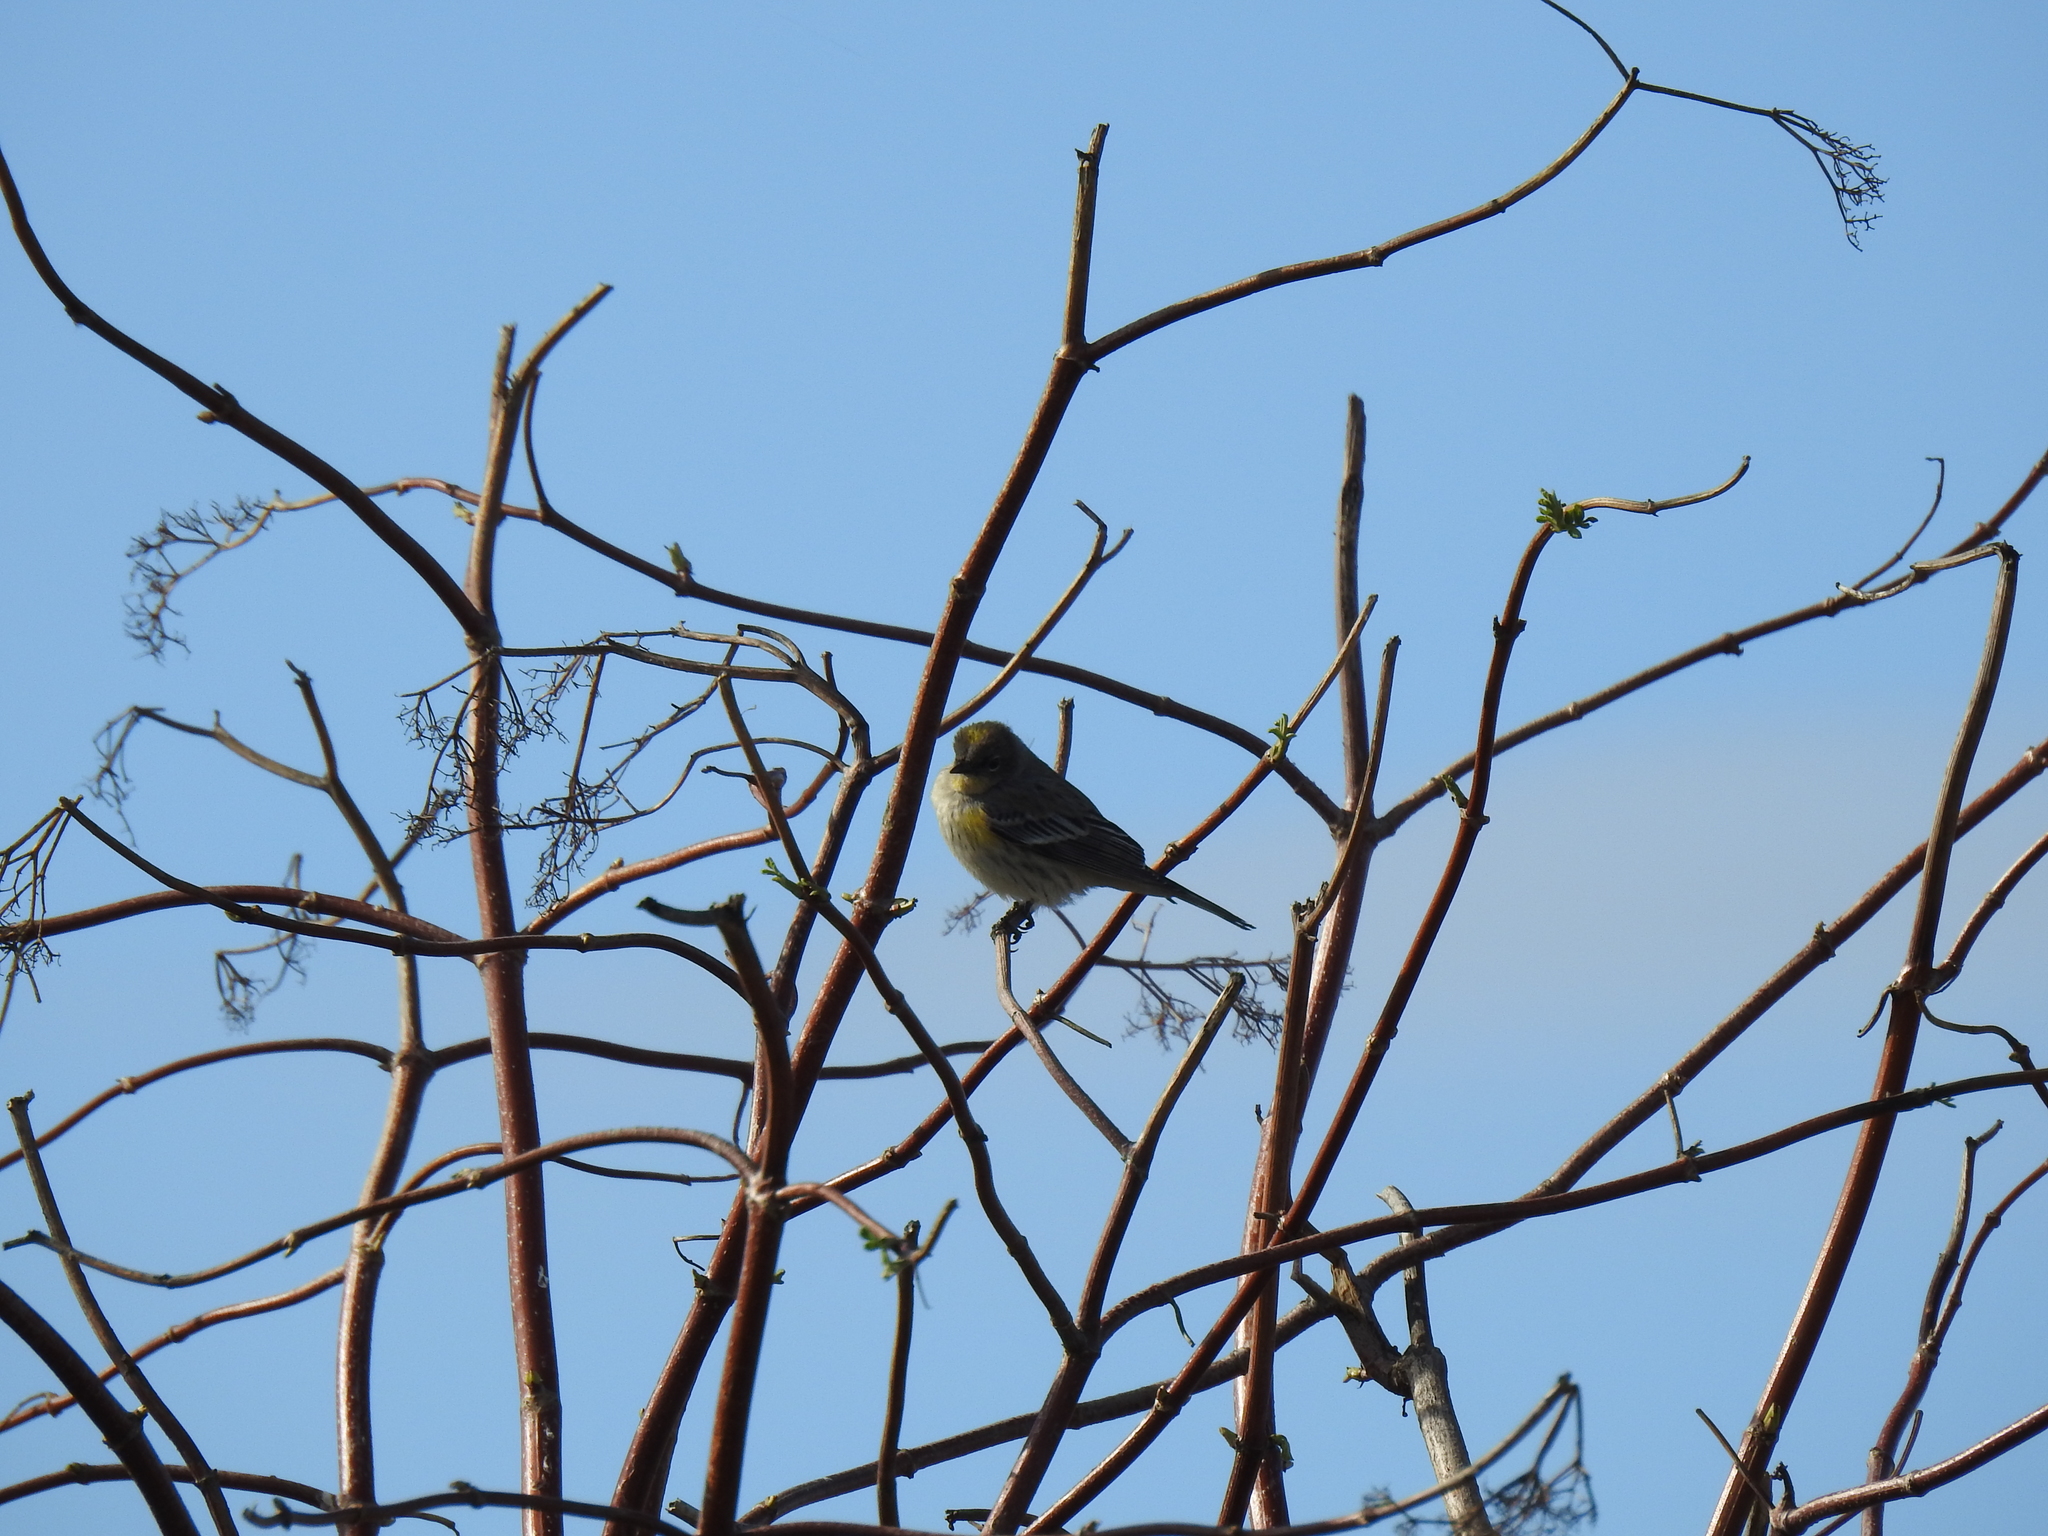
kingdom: Animalia
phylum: Chordata
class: Aves
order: Passeriformes
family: Parulidae
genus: Setophaga
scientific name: Setophaga coronata
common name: Myrtle warbler
